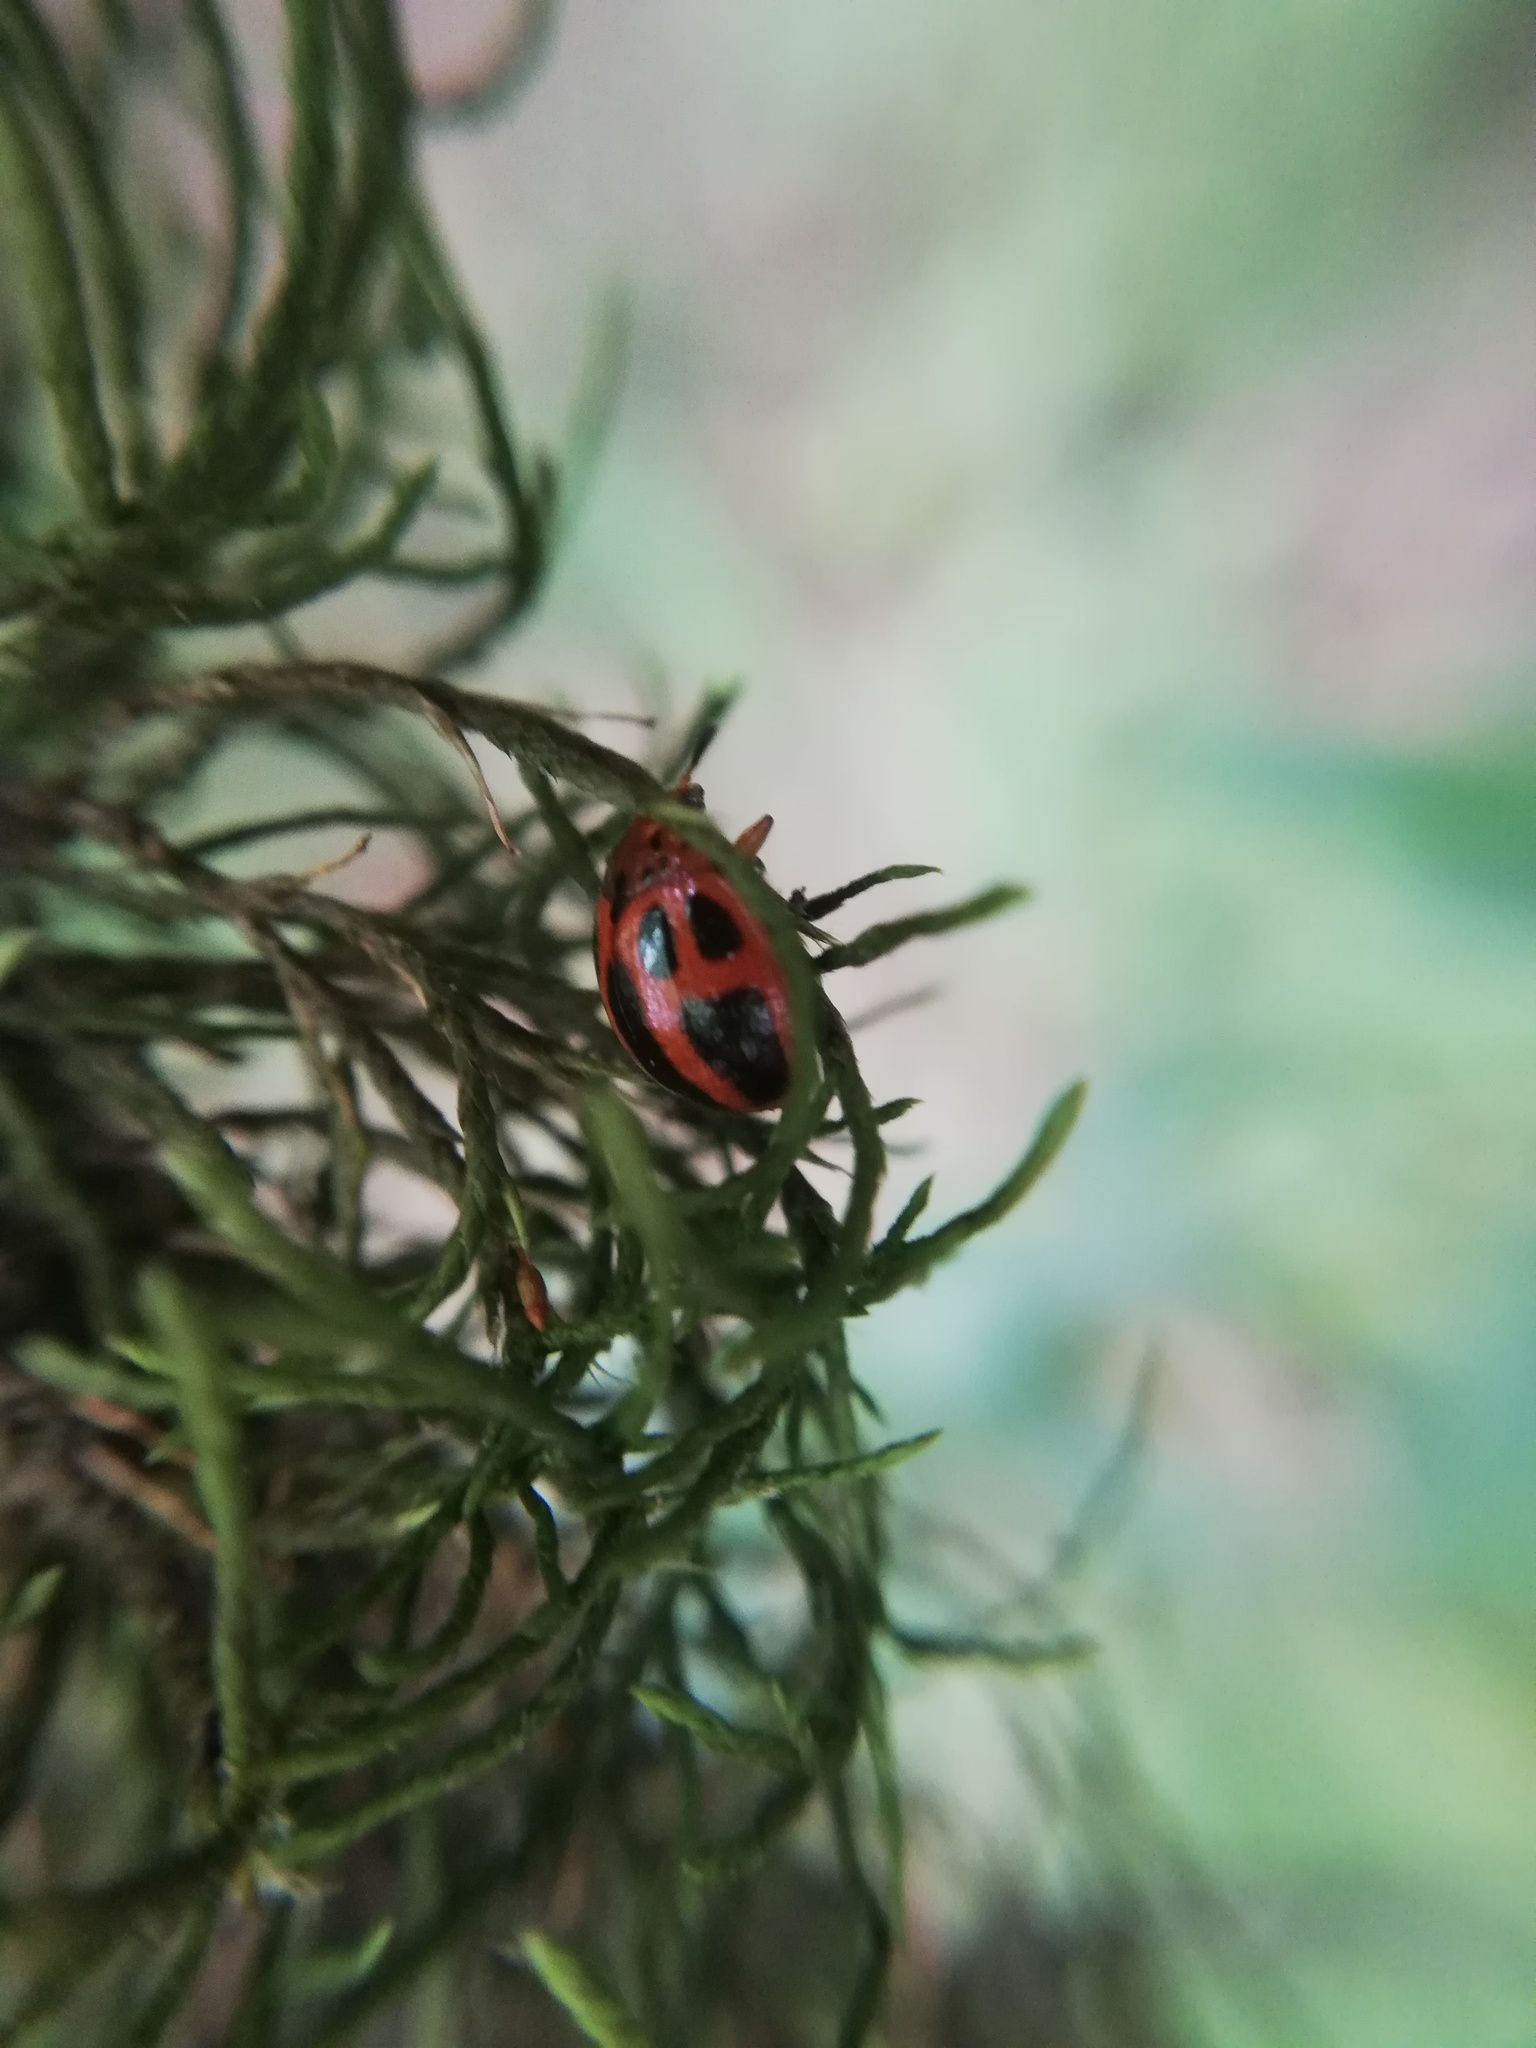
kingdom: Animalia
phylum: Arthropoda
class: Insecta
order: Coleoptera
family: Chrysomelidae
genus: Plagiodera
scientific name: Plagiodera
